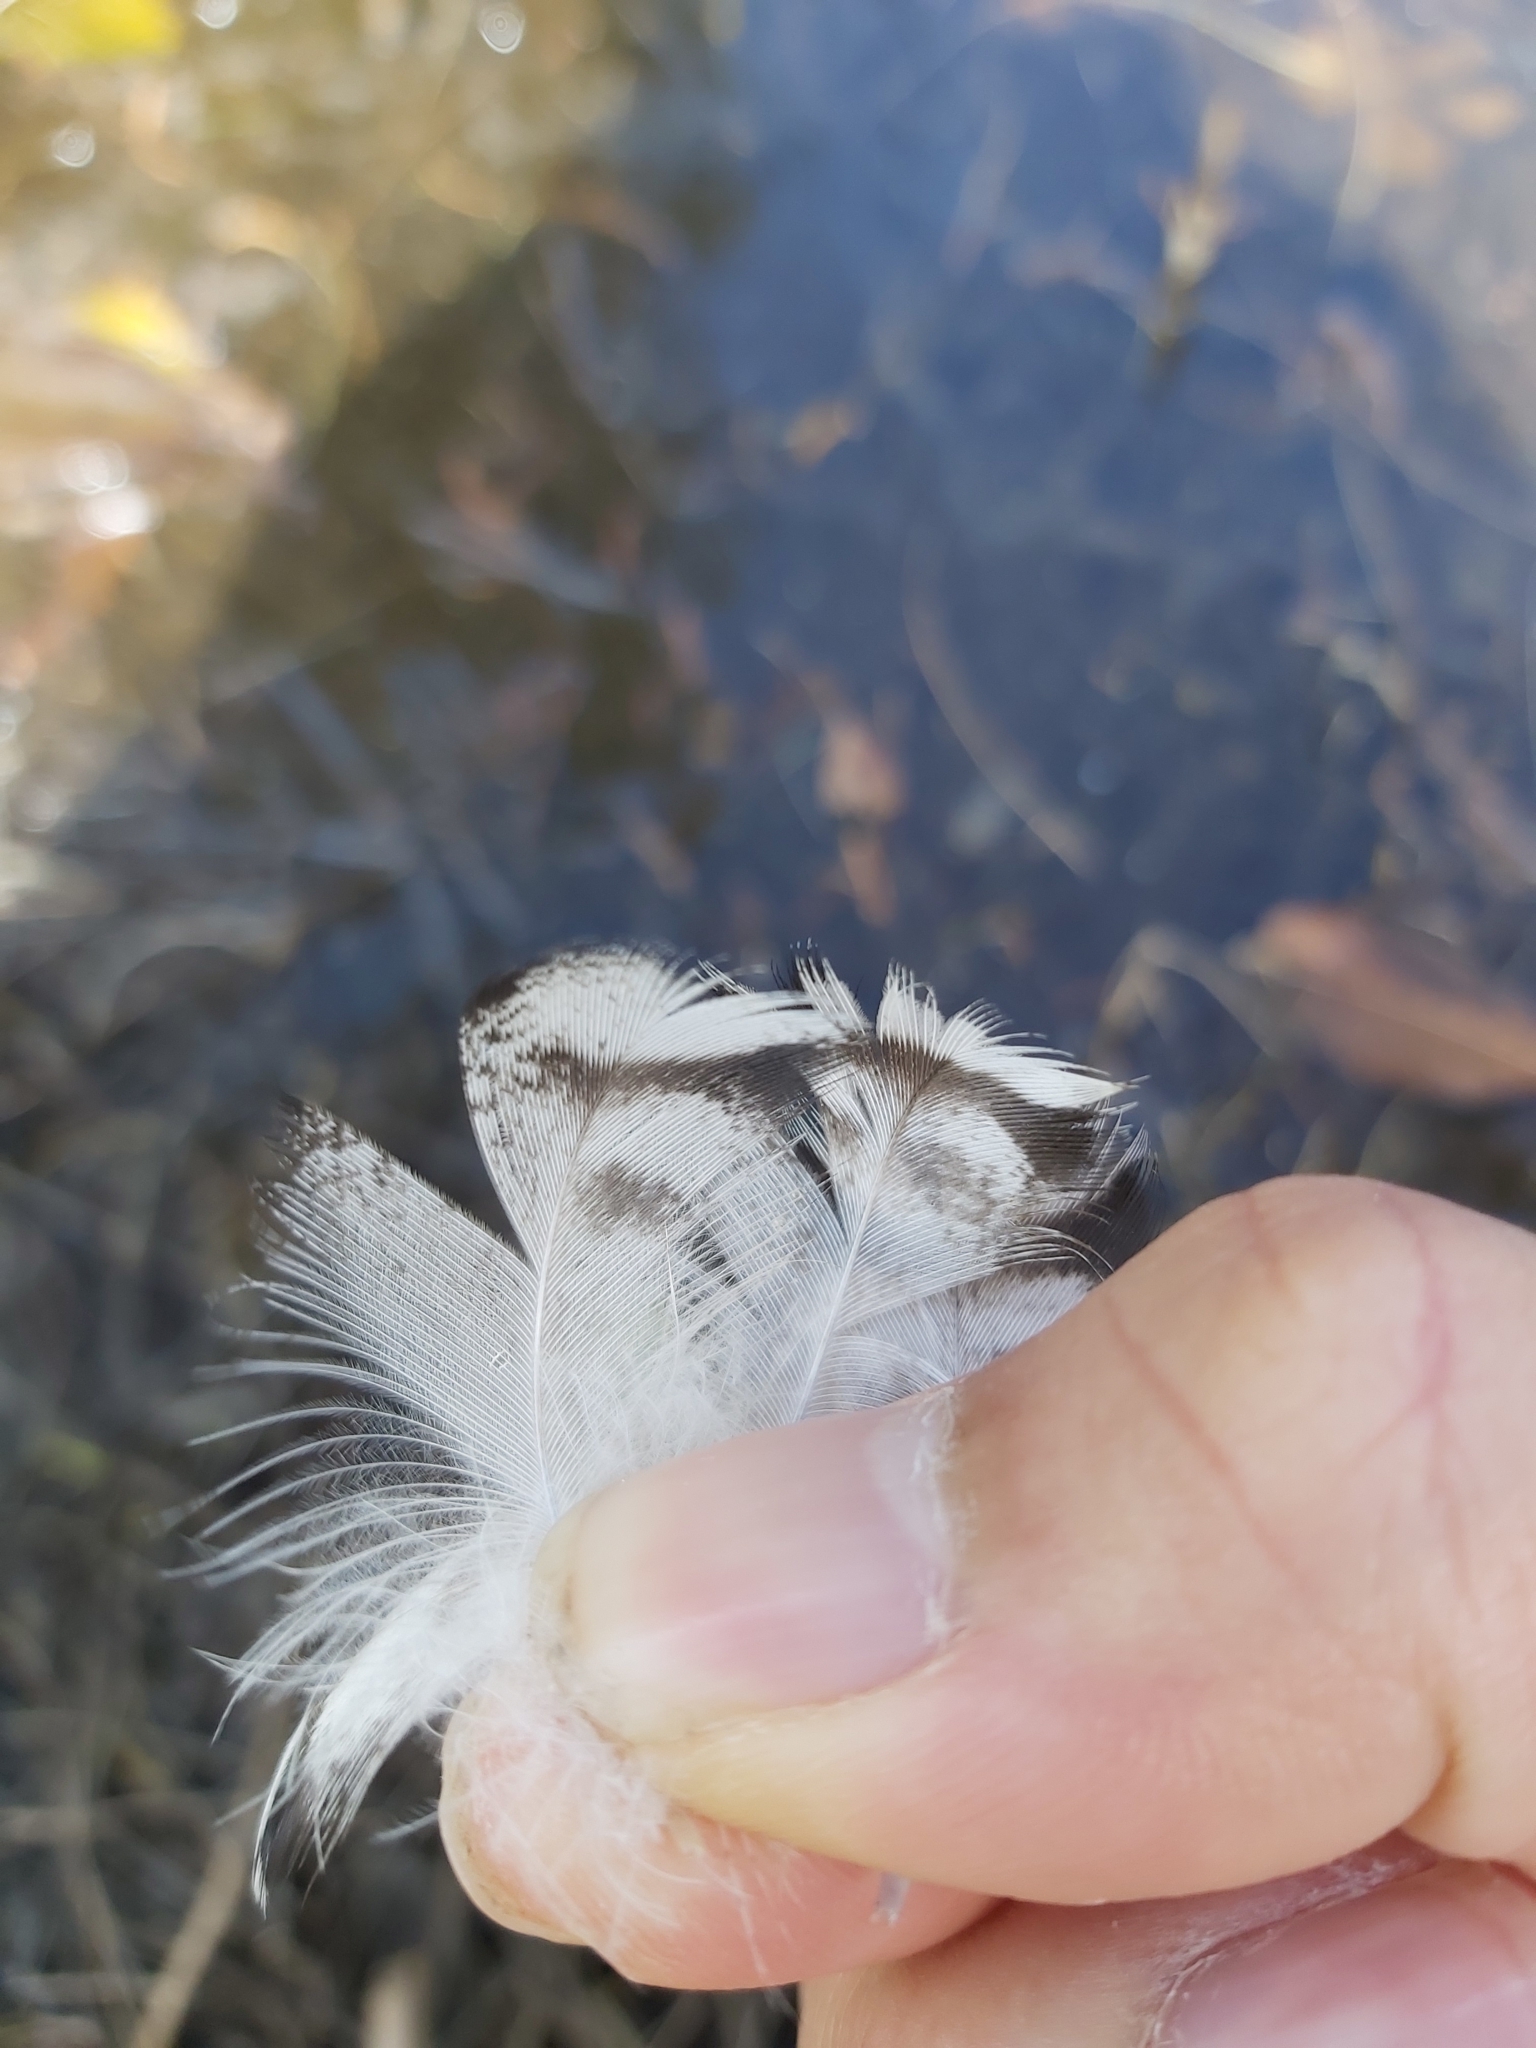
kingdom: Animalia
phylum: Chordata
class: Aves
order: Anseriformes
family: Anatidae
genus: Chenonetta
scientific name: Chenonetta jubata
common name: Maned duck
